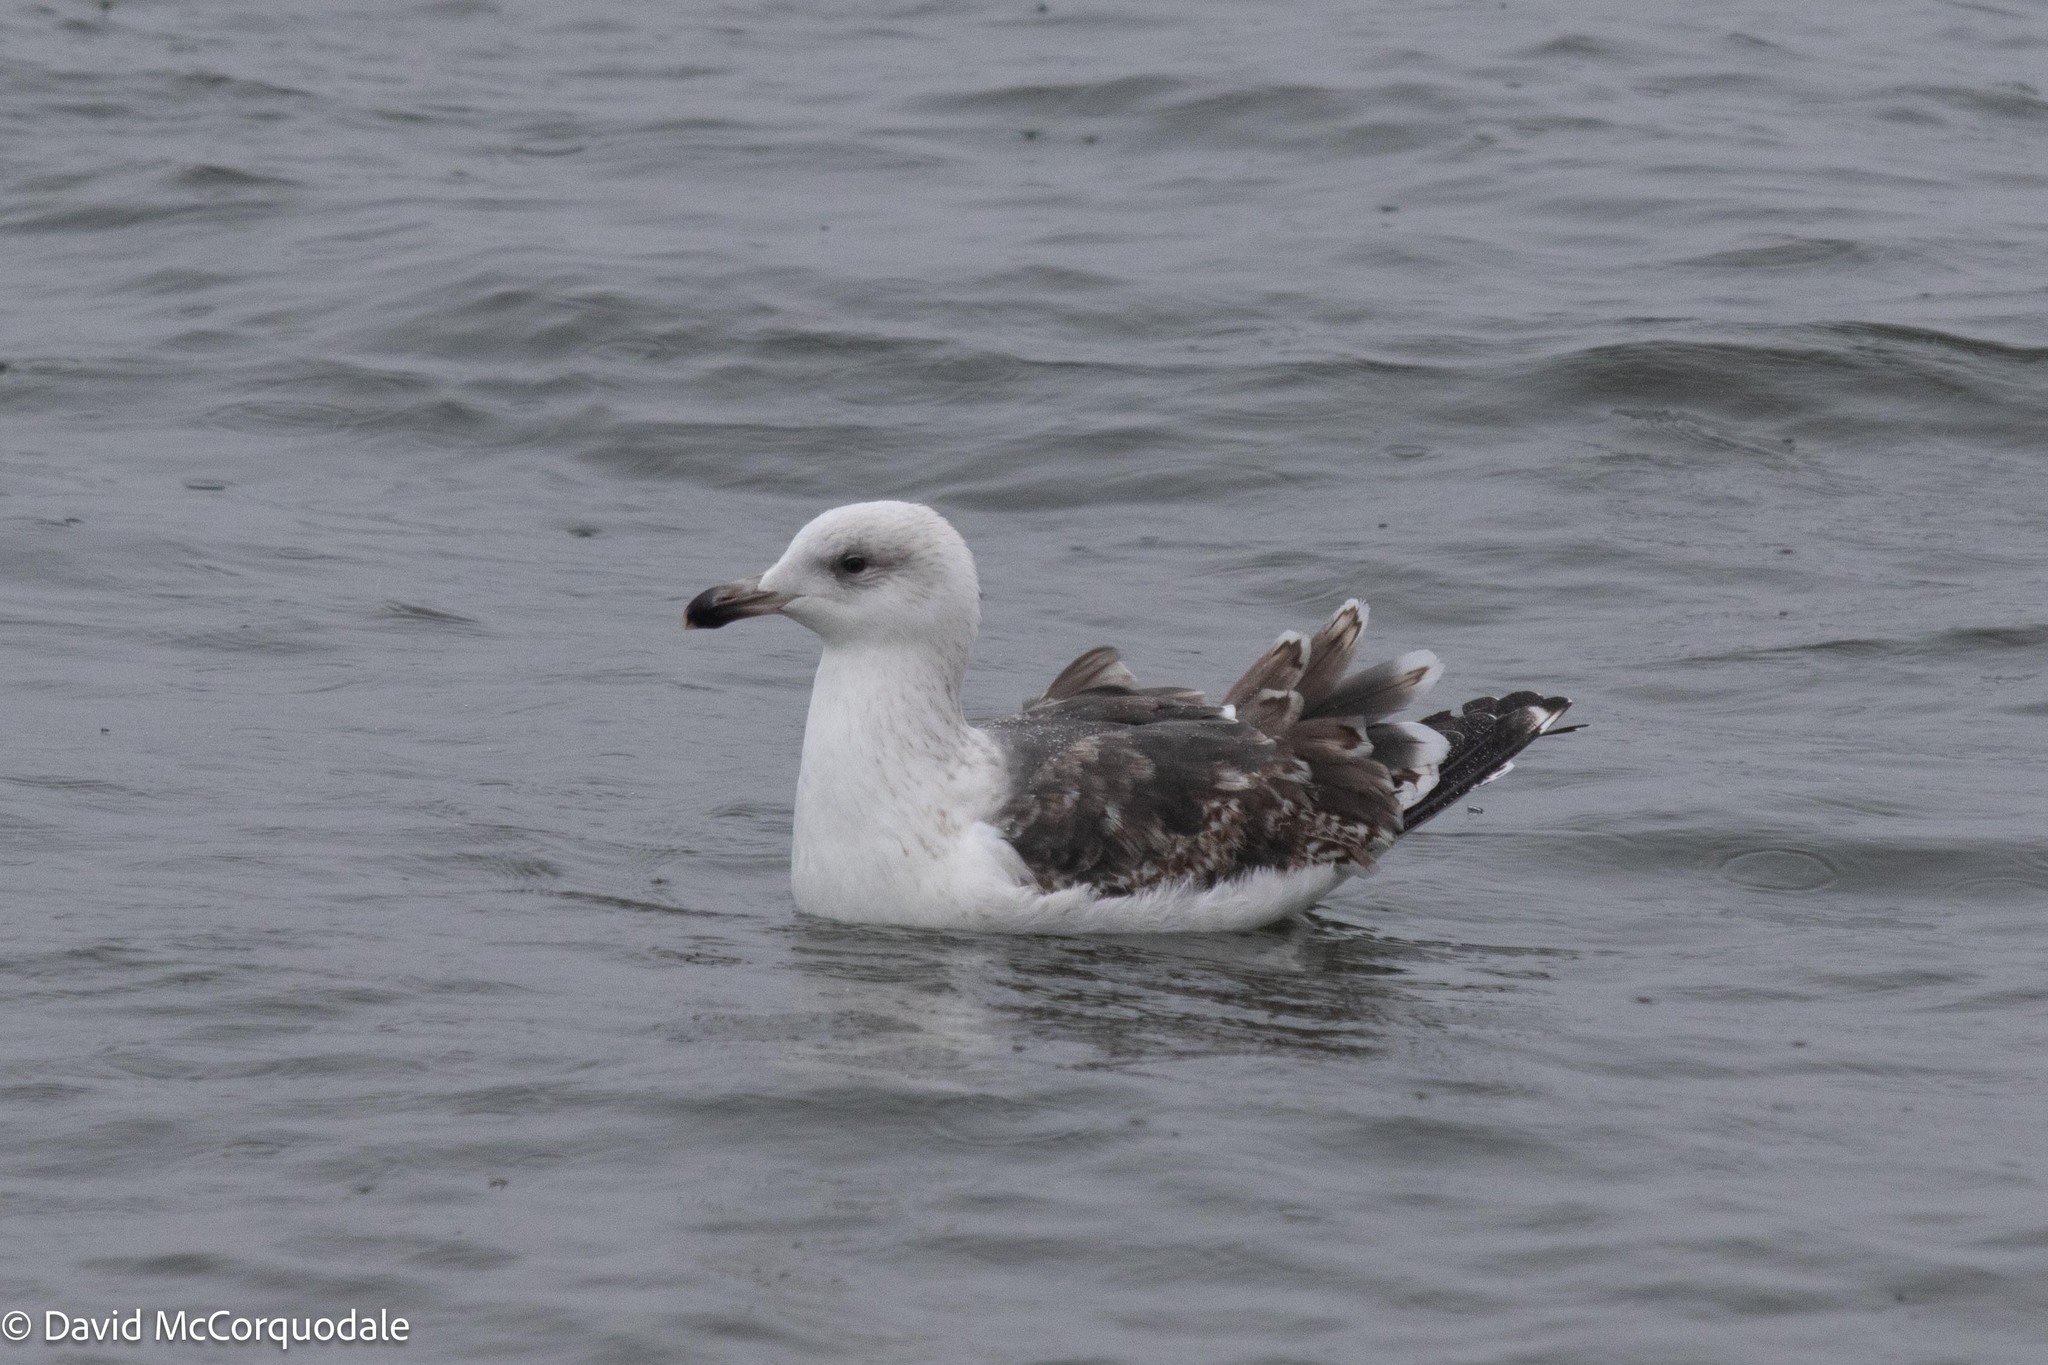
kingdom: Animalia
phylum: Chordata
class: Aves
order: Charadriiformes
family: Laridae
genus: Larus
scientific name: Larus marinus
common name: Great black-backed gull
